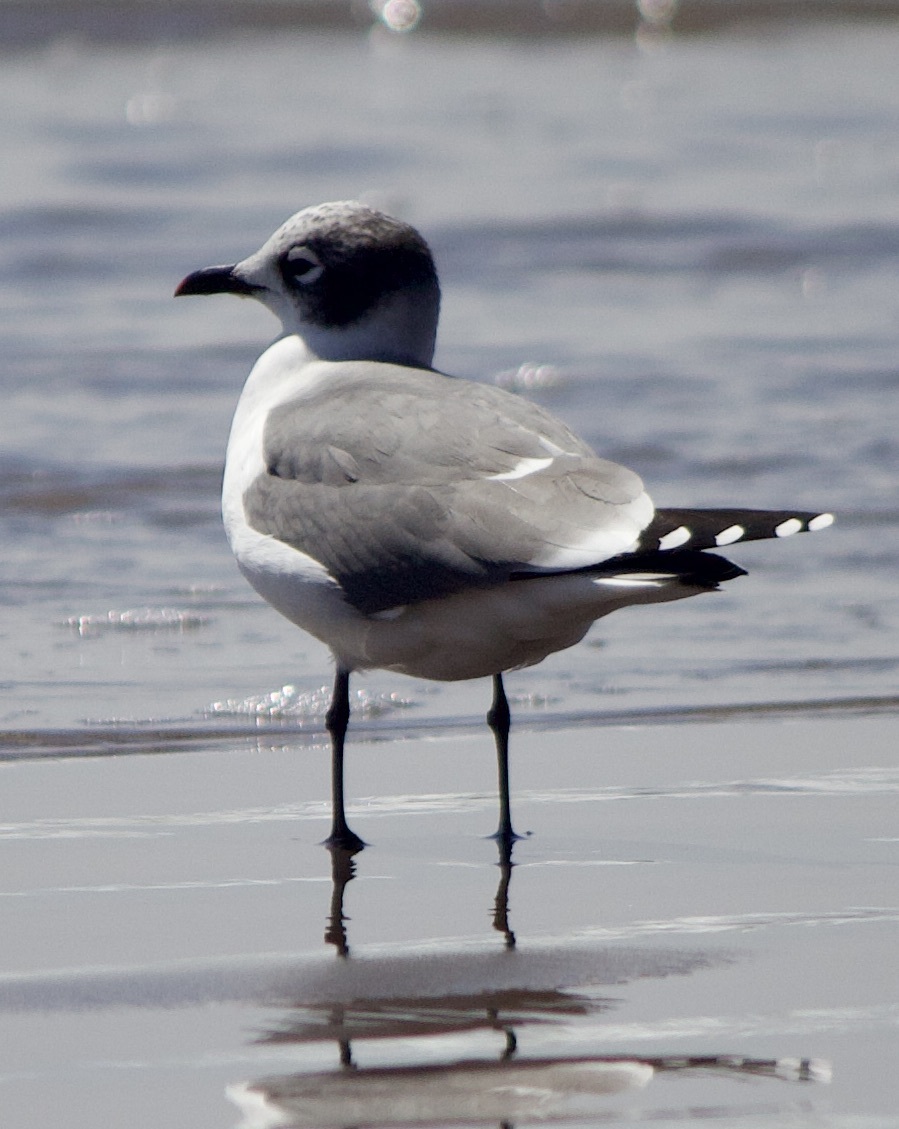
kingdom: Animalia
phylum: Chordata
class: Aves
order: Charadriiformes
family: Laridae
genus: Leucophaeus
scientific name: Leucophaeus pipixcan
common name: Franklin's gull
